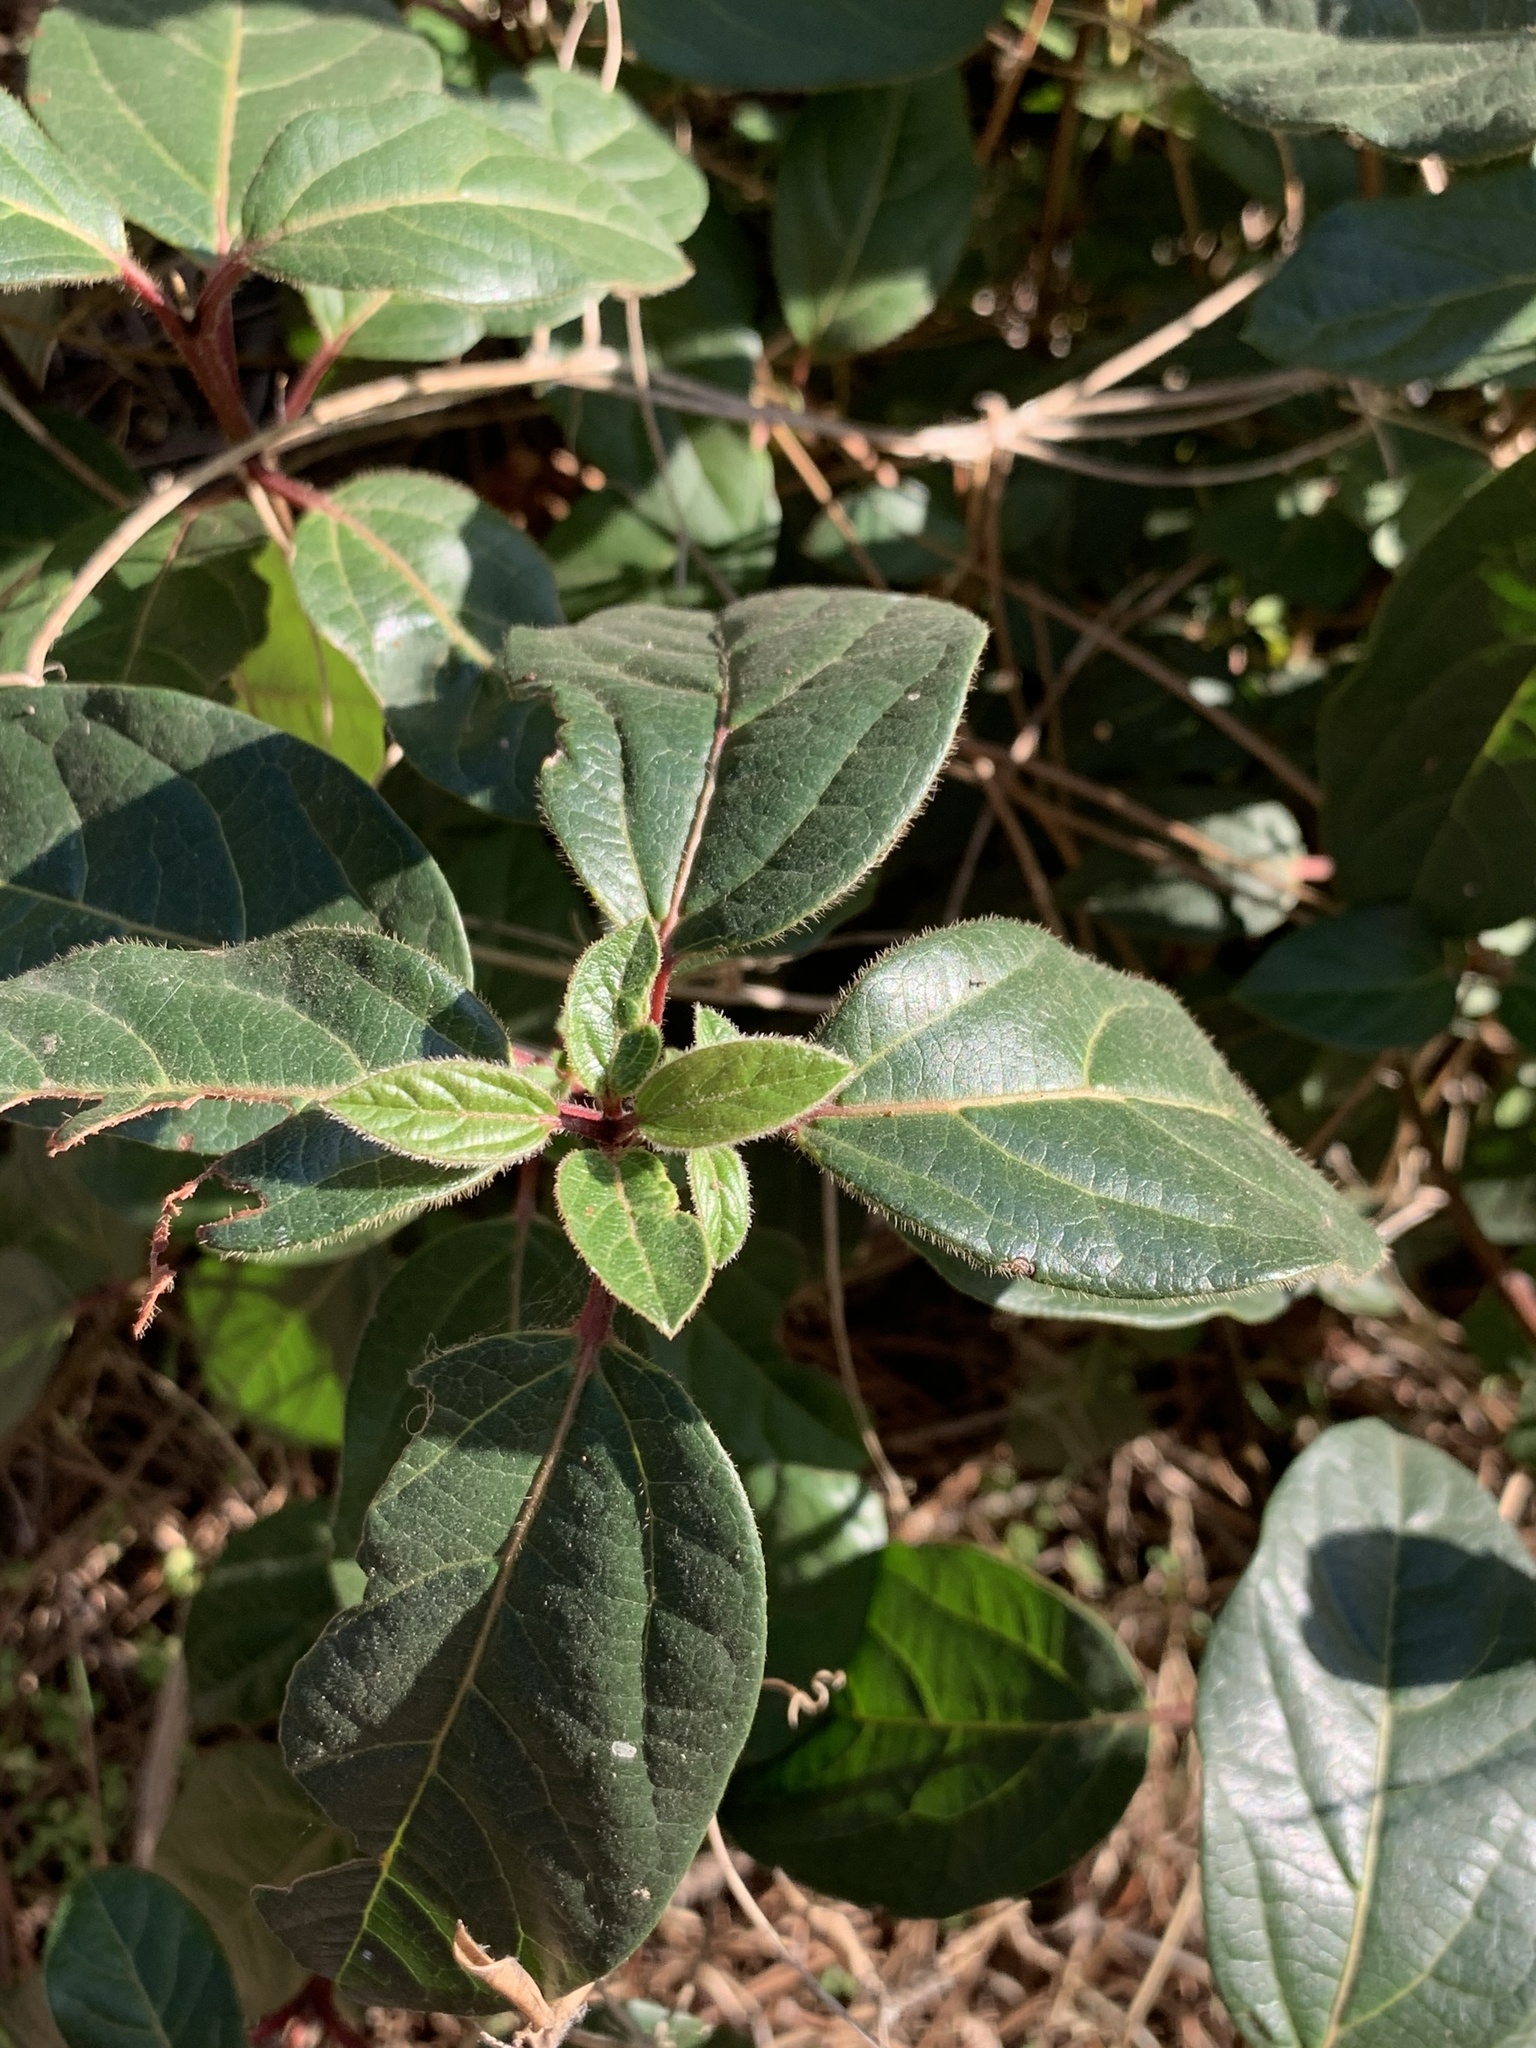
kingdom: Plantae
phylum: Tracheophyta
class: Magnoliopsida
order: Dipsacales
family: Viburnaceae
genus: Viburnum
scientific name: Viburnum tinus
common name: Laurustinus
